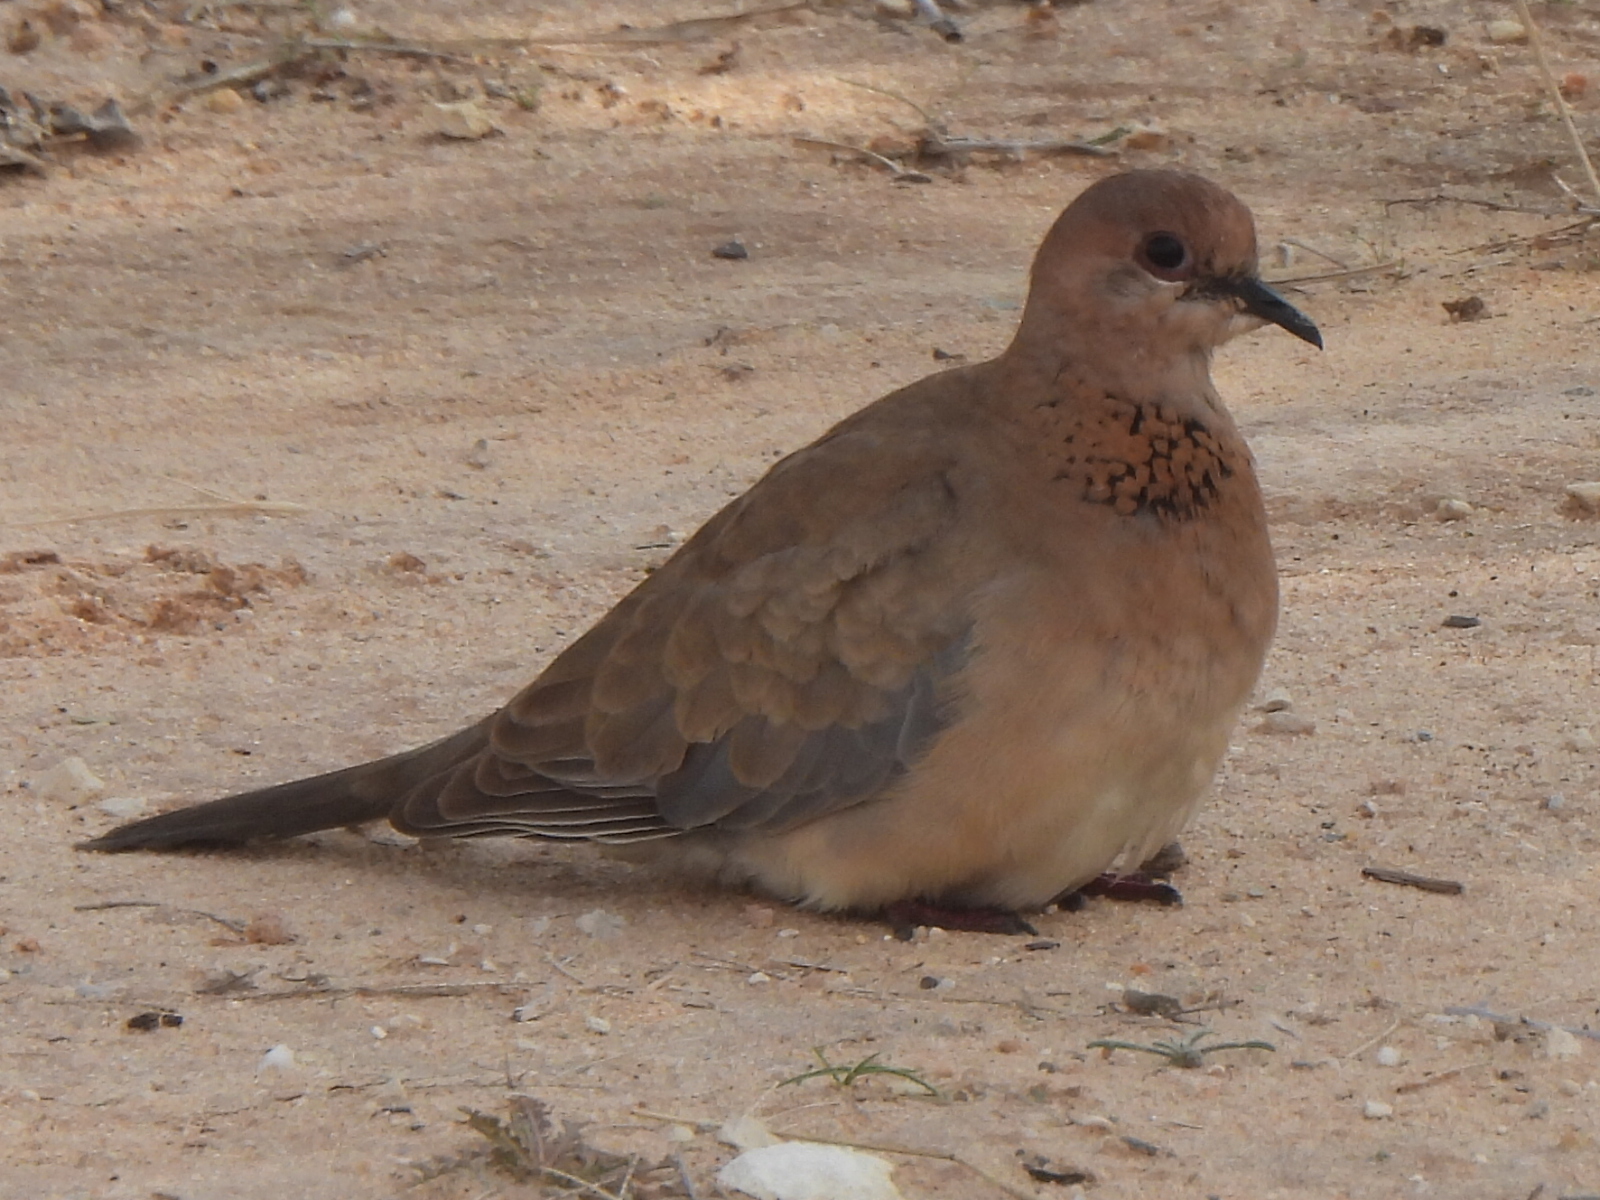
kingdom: Animalia
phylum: Chordata
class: Aves
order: Columbiformes
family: Columbidae
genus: Spilopelia
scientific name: Spilopelia senegalensis
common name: Laughing dove
